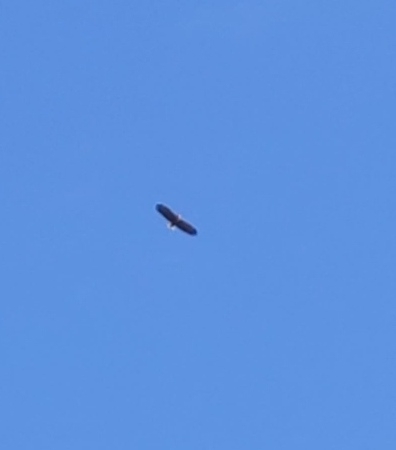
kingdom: Animalia
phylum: Chordata
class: Aves
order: Accipitriformes
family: Accipitridae
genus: Haliaeetus
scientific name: Haliaeetus albicilla
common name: White-tailed eagle
